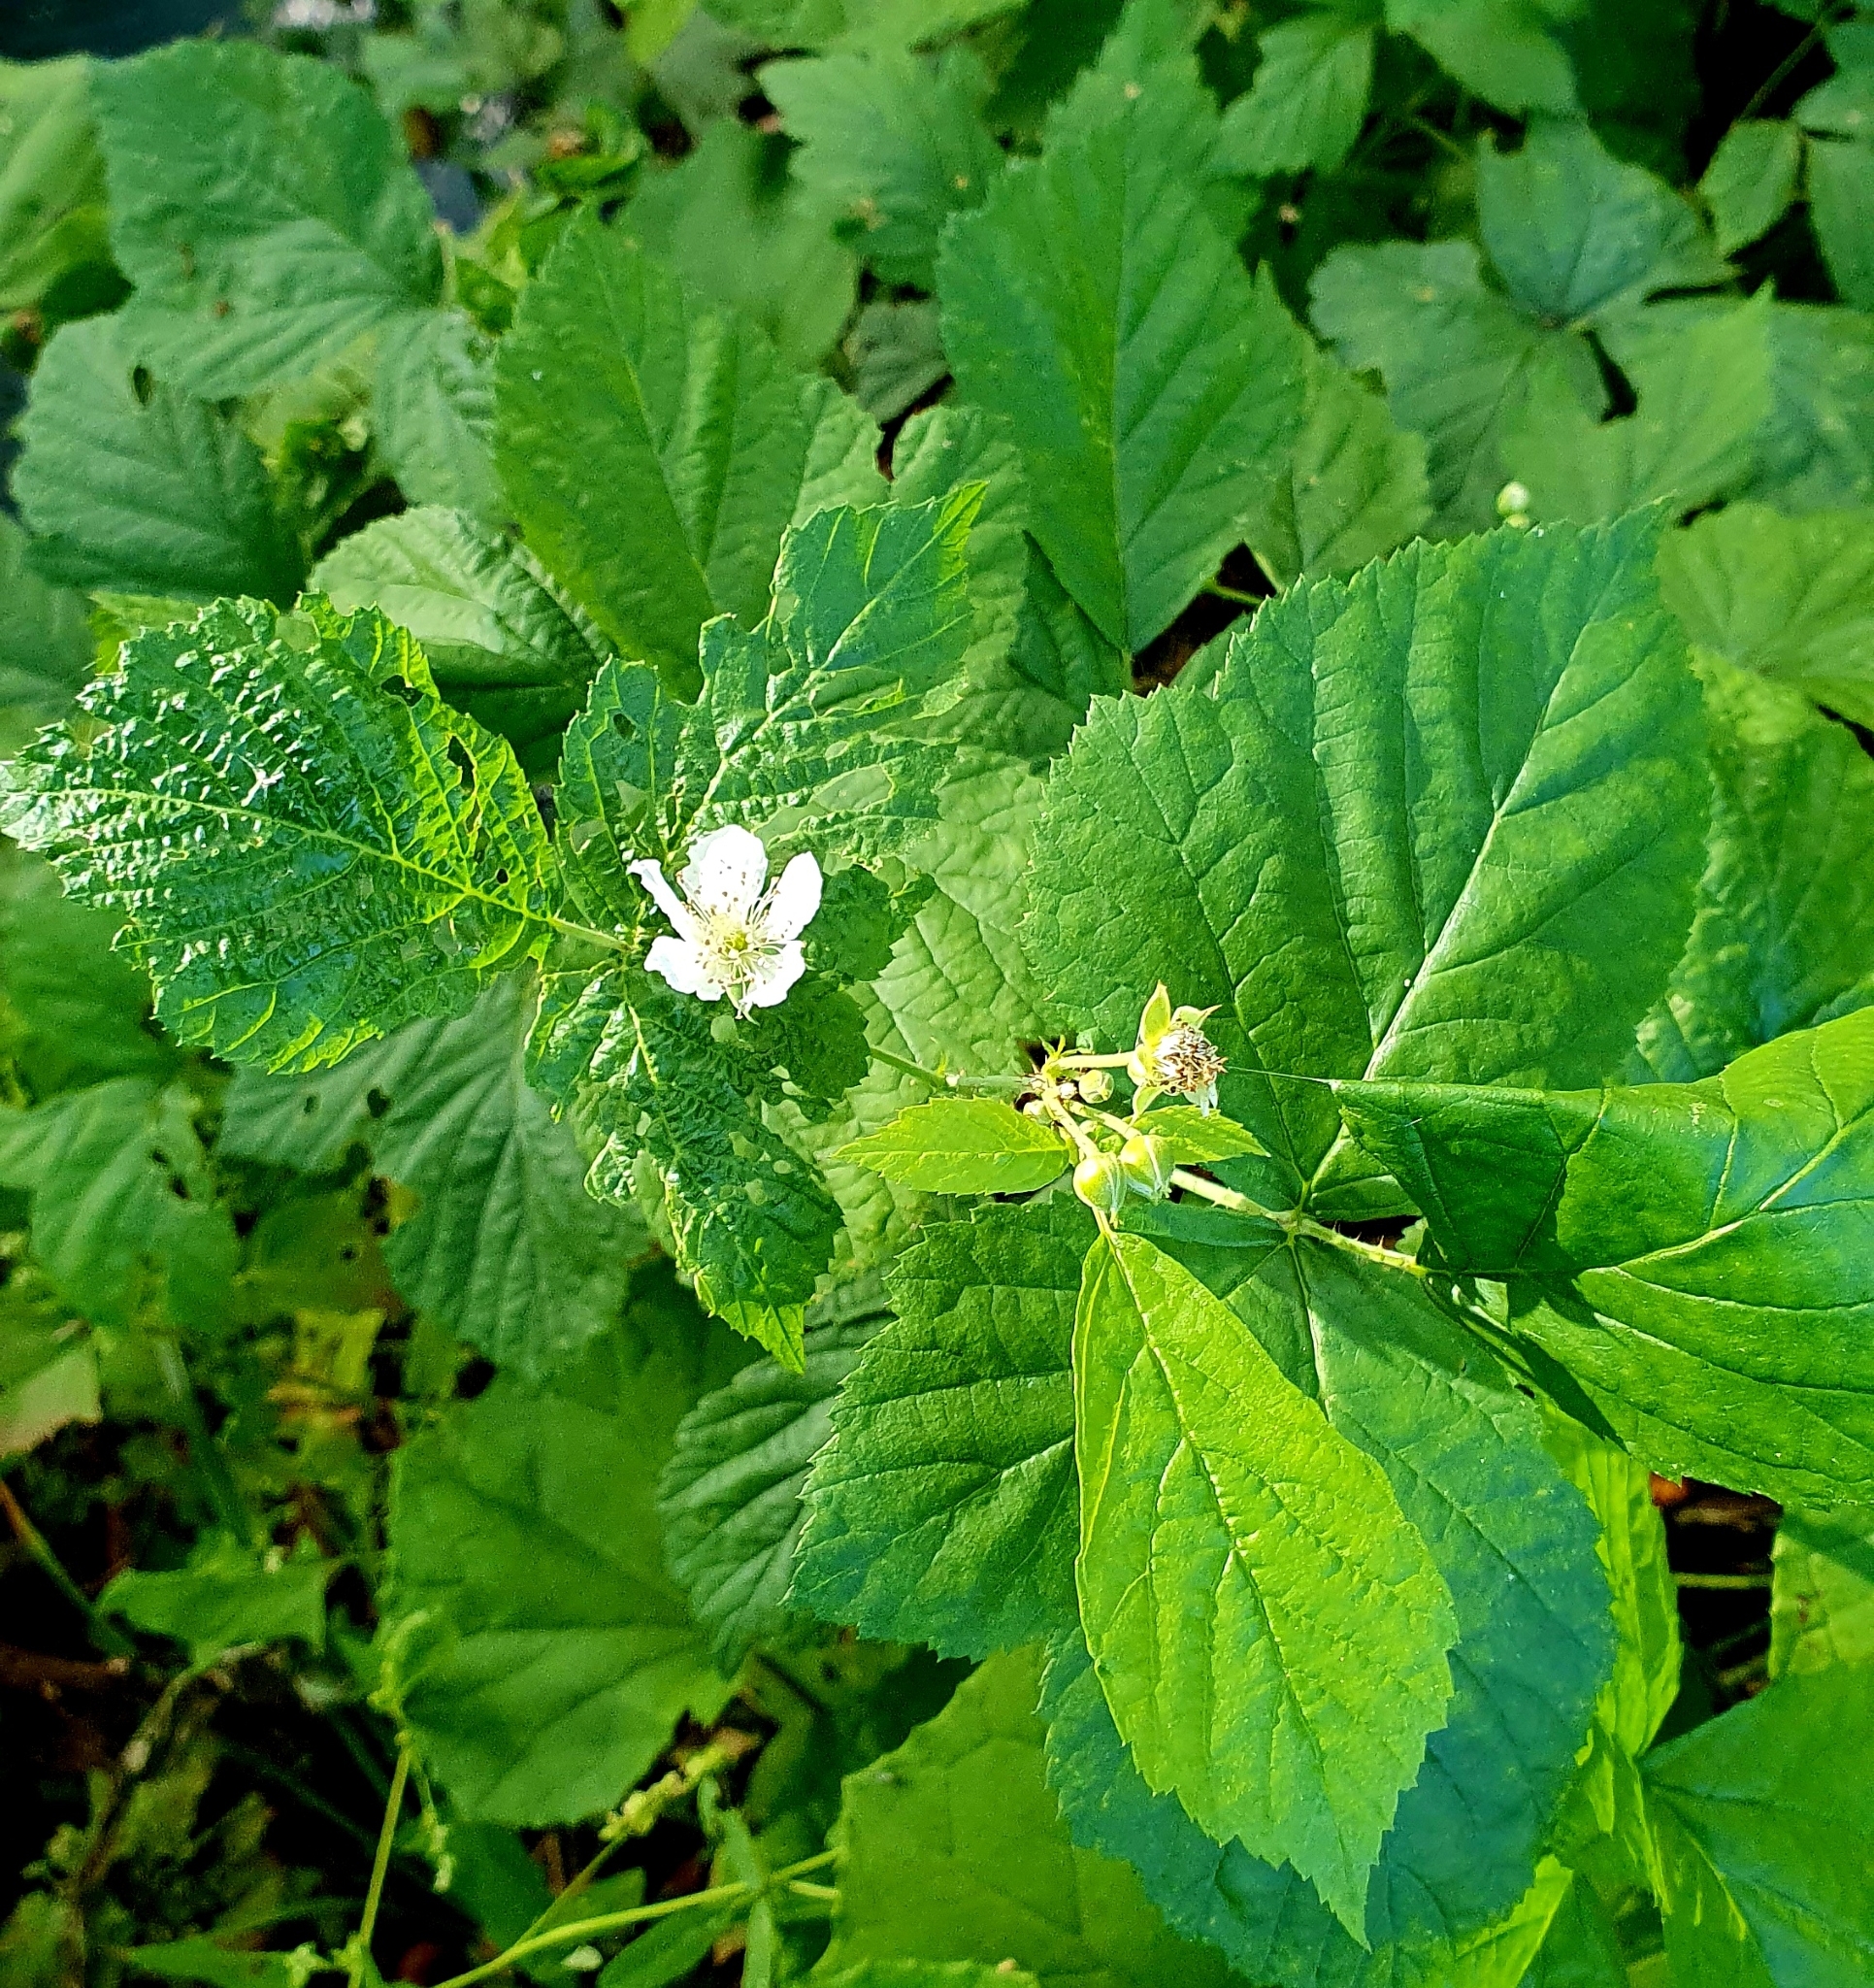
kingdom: Plantae
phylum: Tracheophyta
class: Magnoliopsida
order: Rosales
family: Rosaceae
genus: Rubus
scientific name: Rubus caesius
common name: Dewberry
